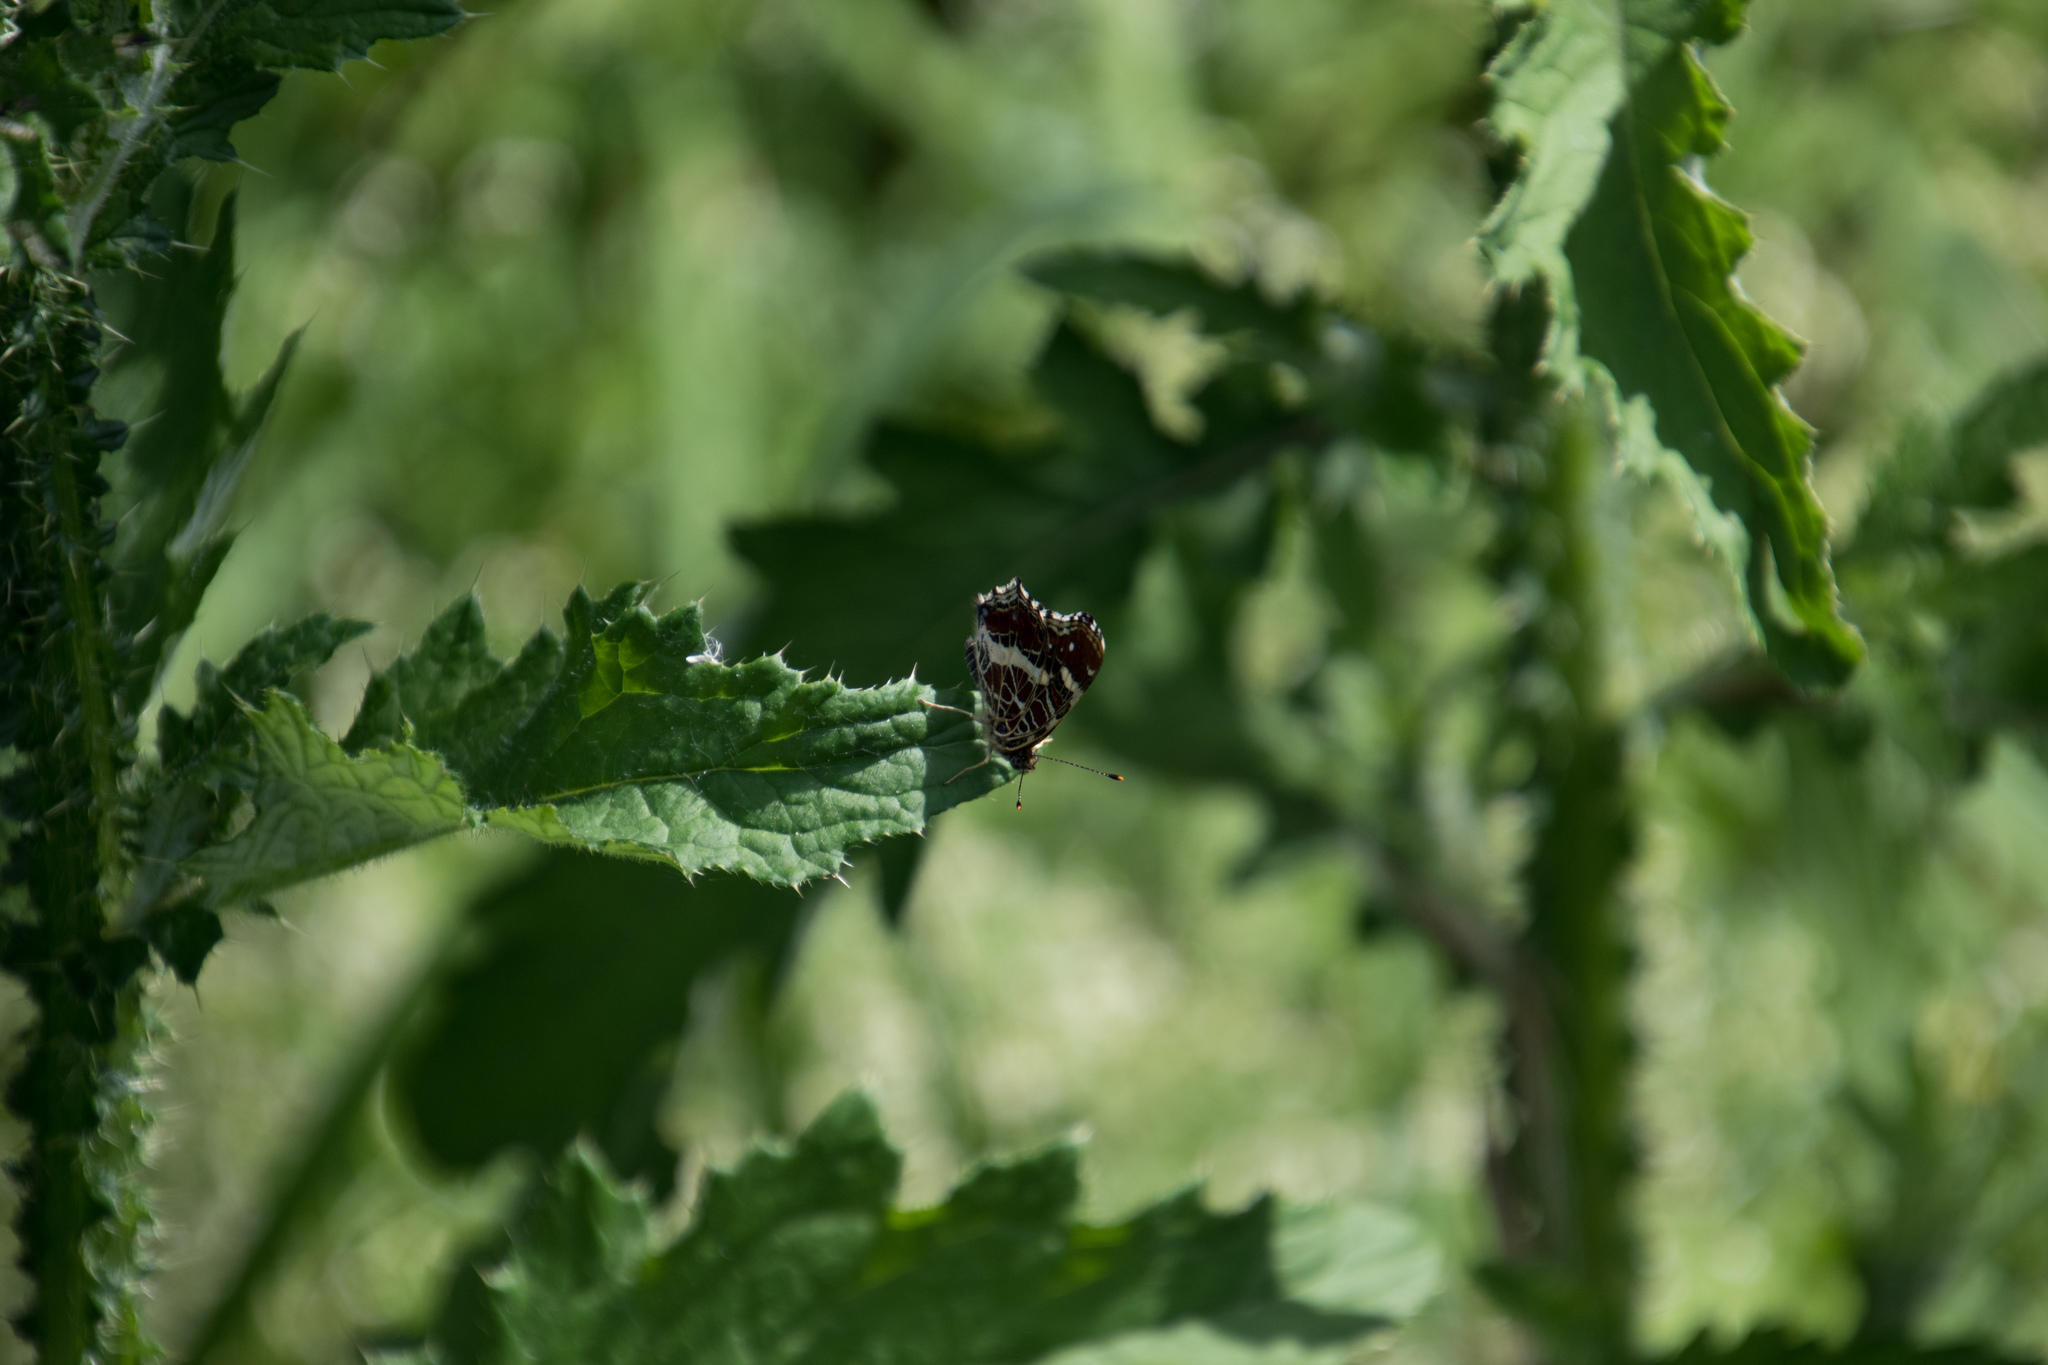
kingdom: Animalia
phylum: Arthropoda
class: Insecta
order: Lepidoptera
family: Nymphalidae
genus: Araschnia
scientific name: Araschnia levana
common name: Map butterfly
